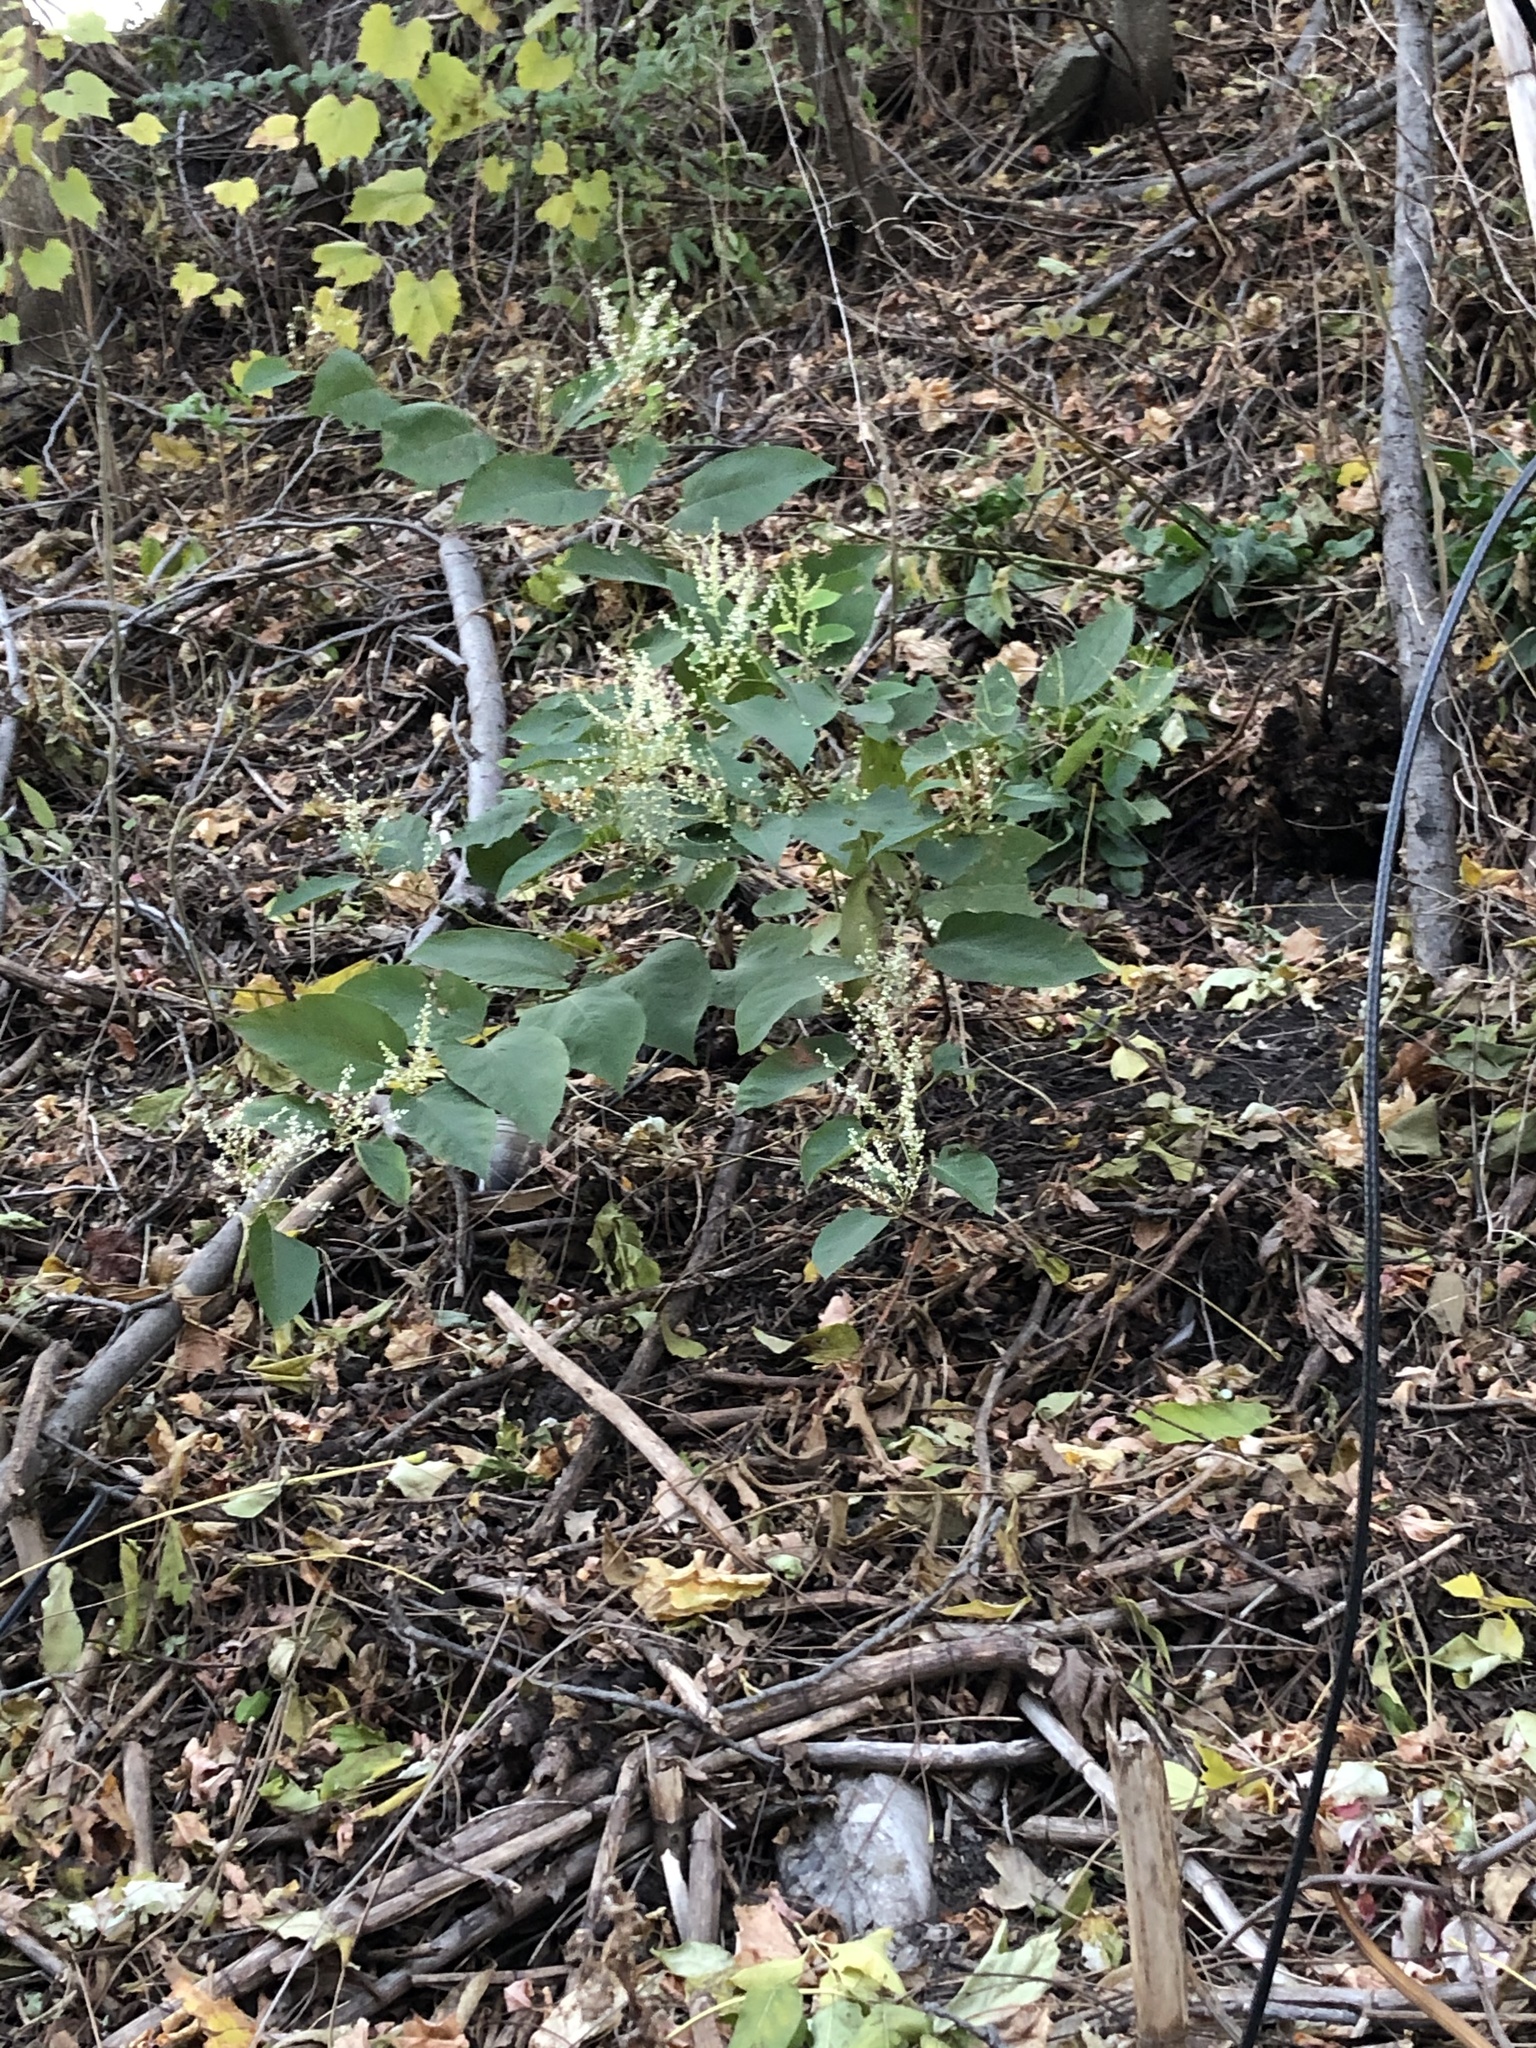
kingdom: Plantae
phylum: Tracheophyta
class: Magnoliopsida
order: Caryophyllales
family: Polygonaceae
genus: Reynoutria
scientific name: Reynoutria japonica
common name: Japanese knotweed
